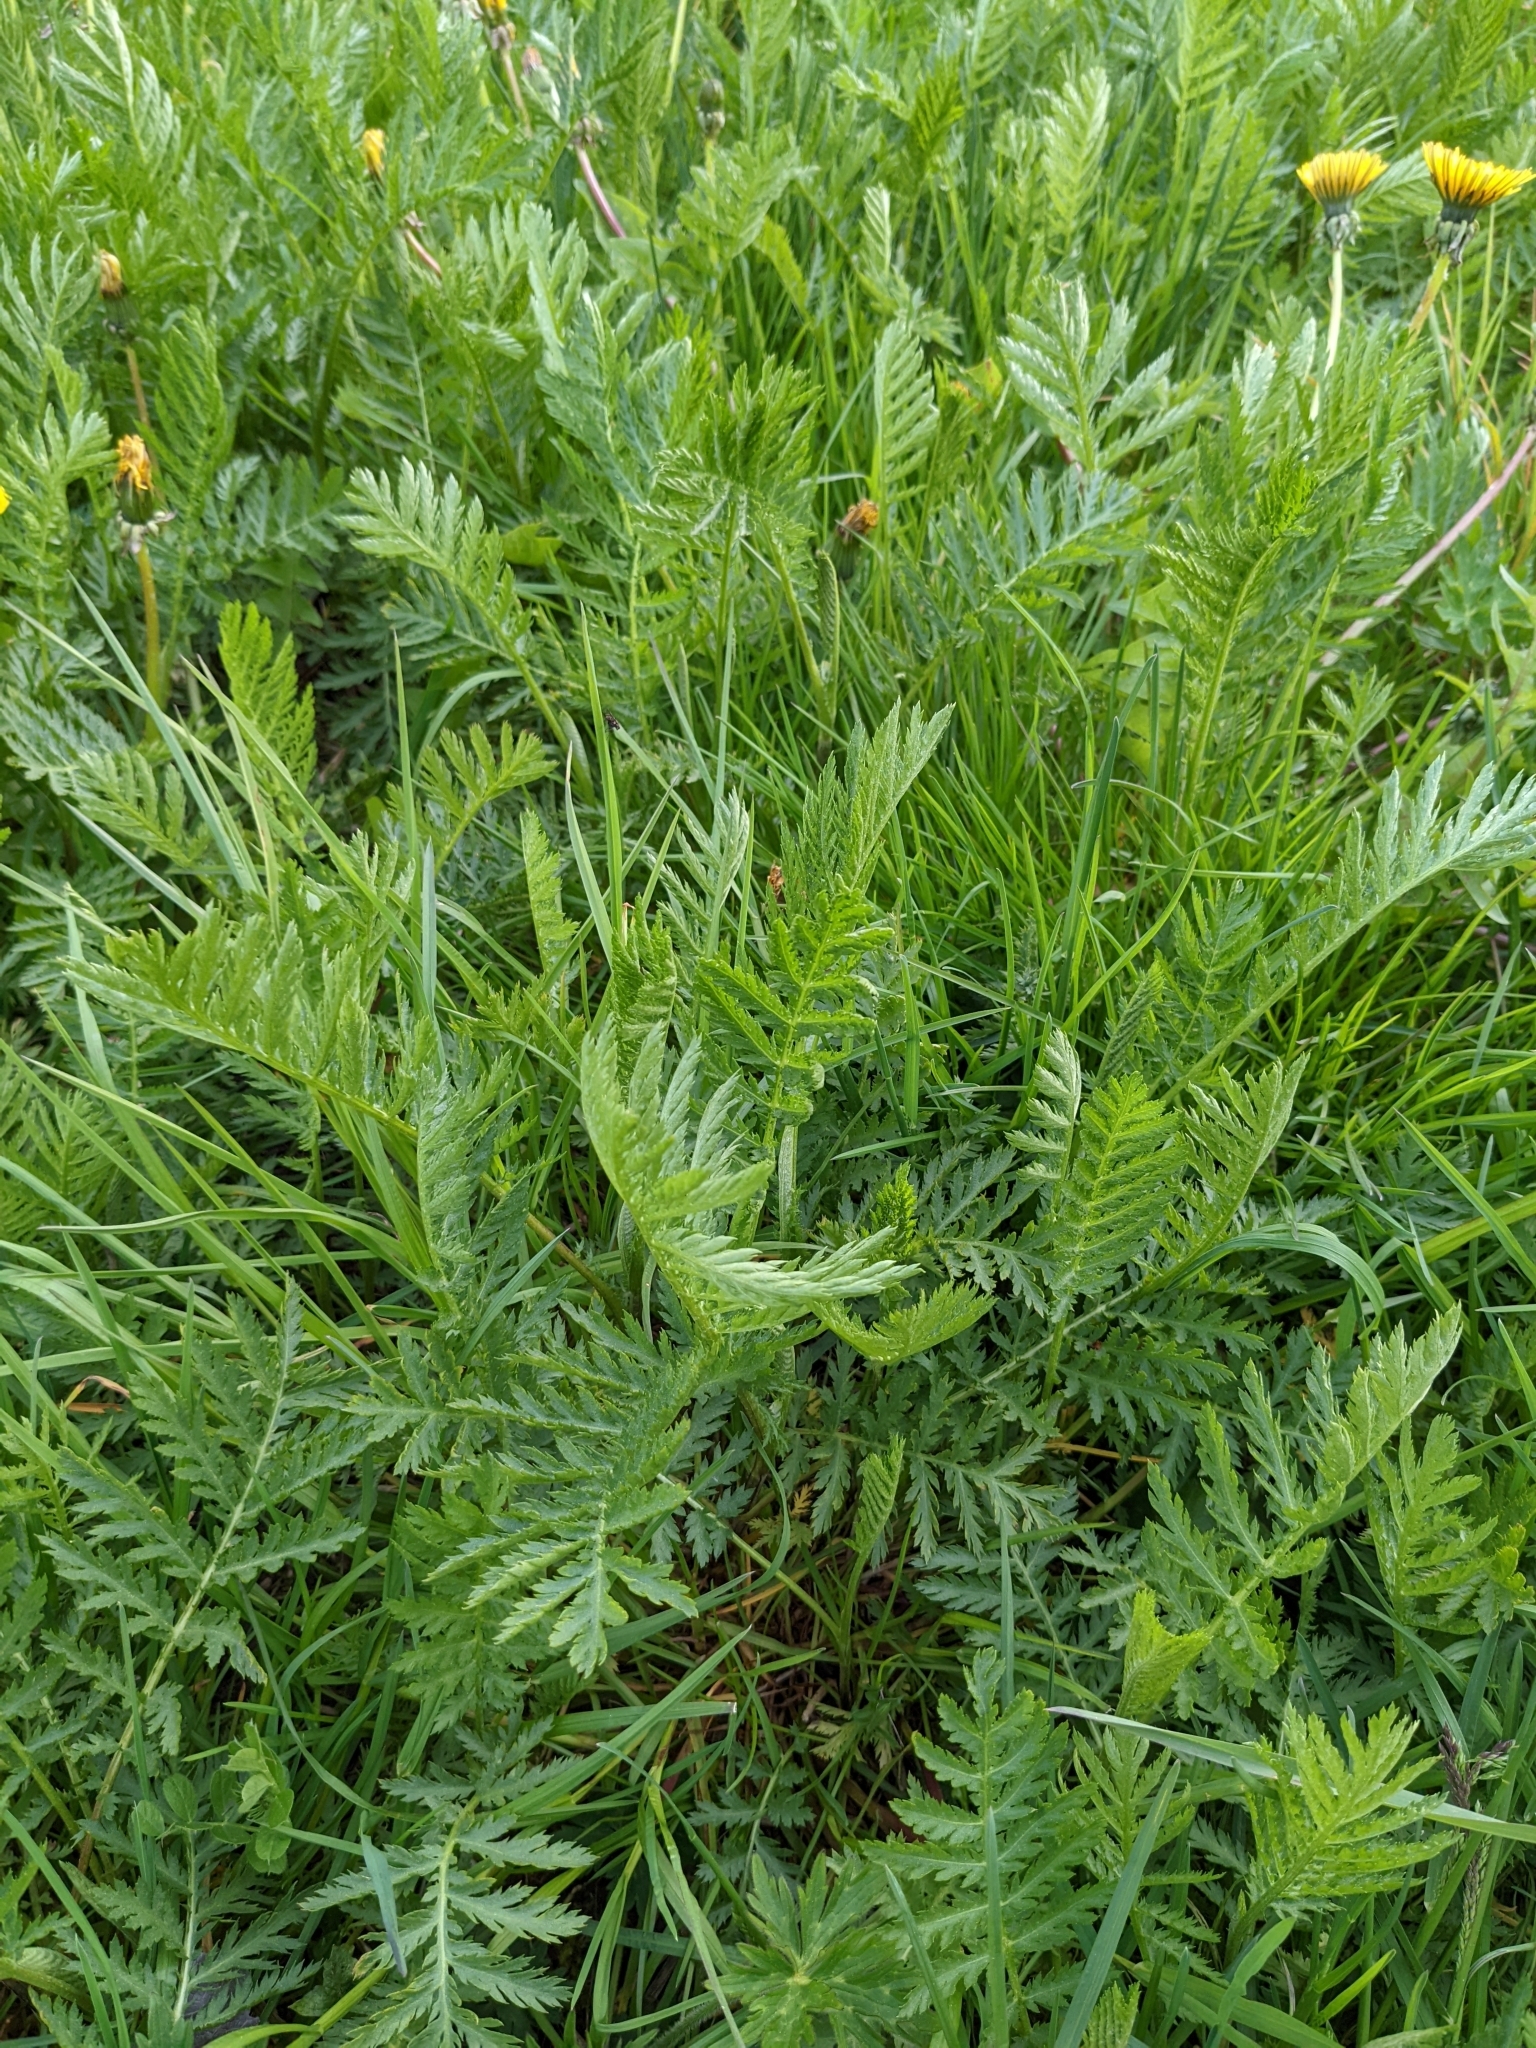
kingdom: Plantae
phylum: Tracheophyta
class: Magnoliopsida
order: Asterales
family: Asteraceae
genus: Tanacetum
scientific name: Tanacetum vulgare
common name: Common tansy
